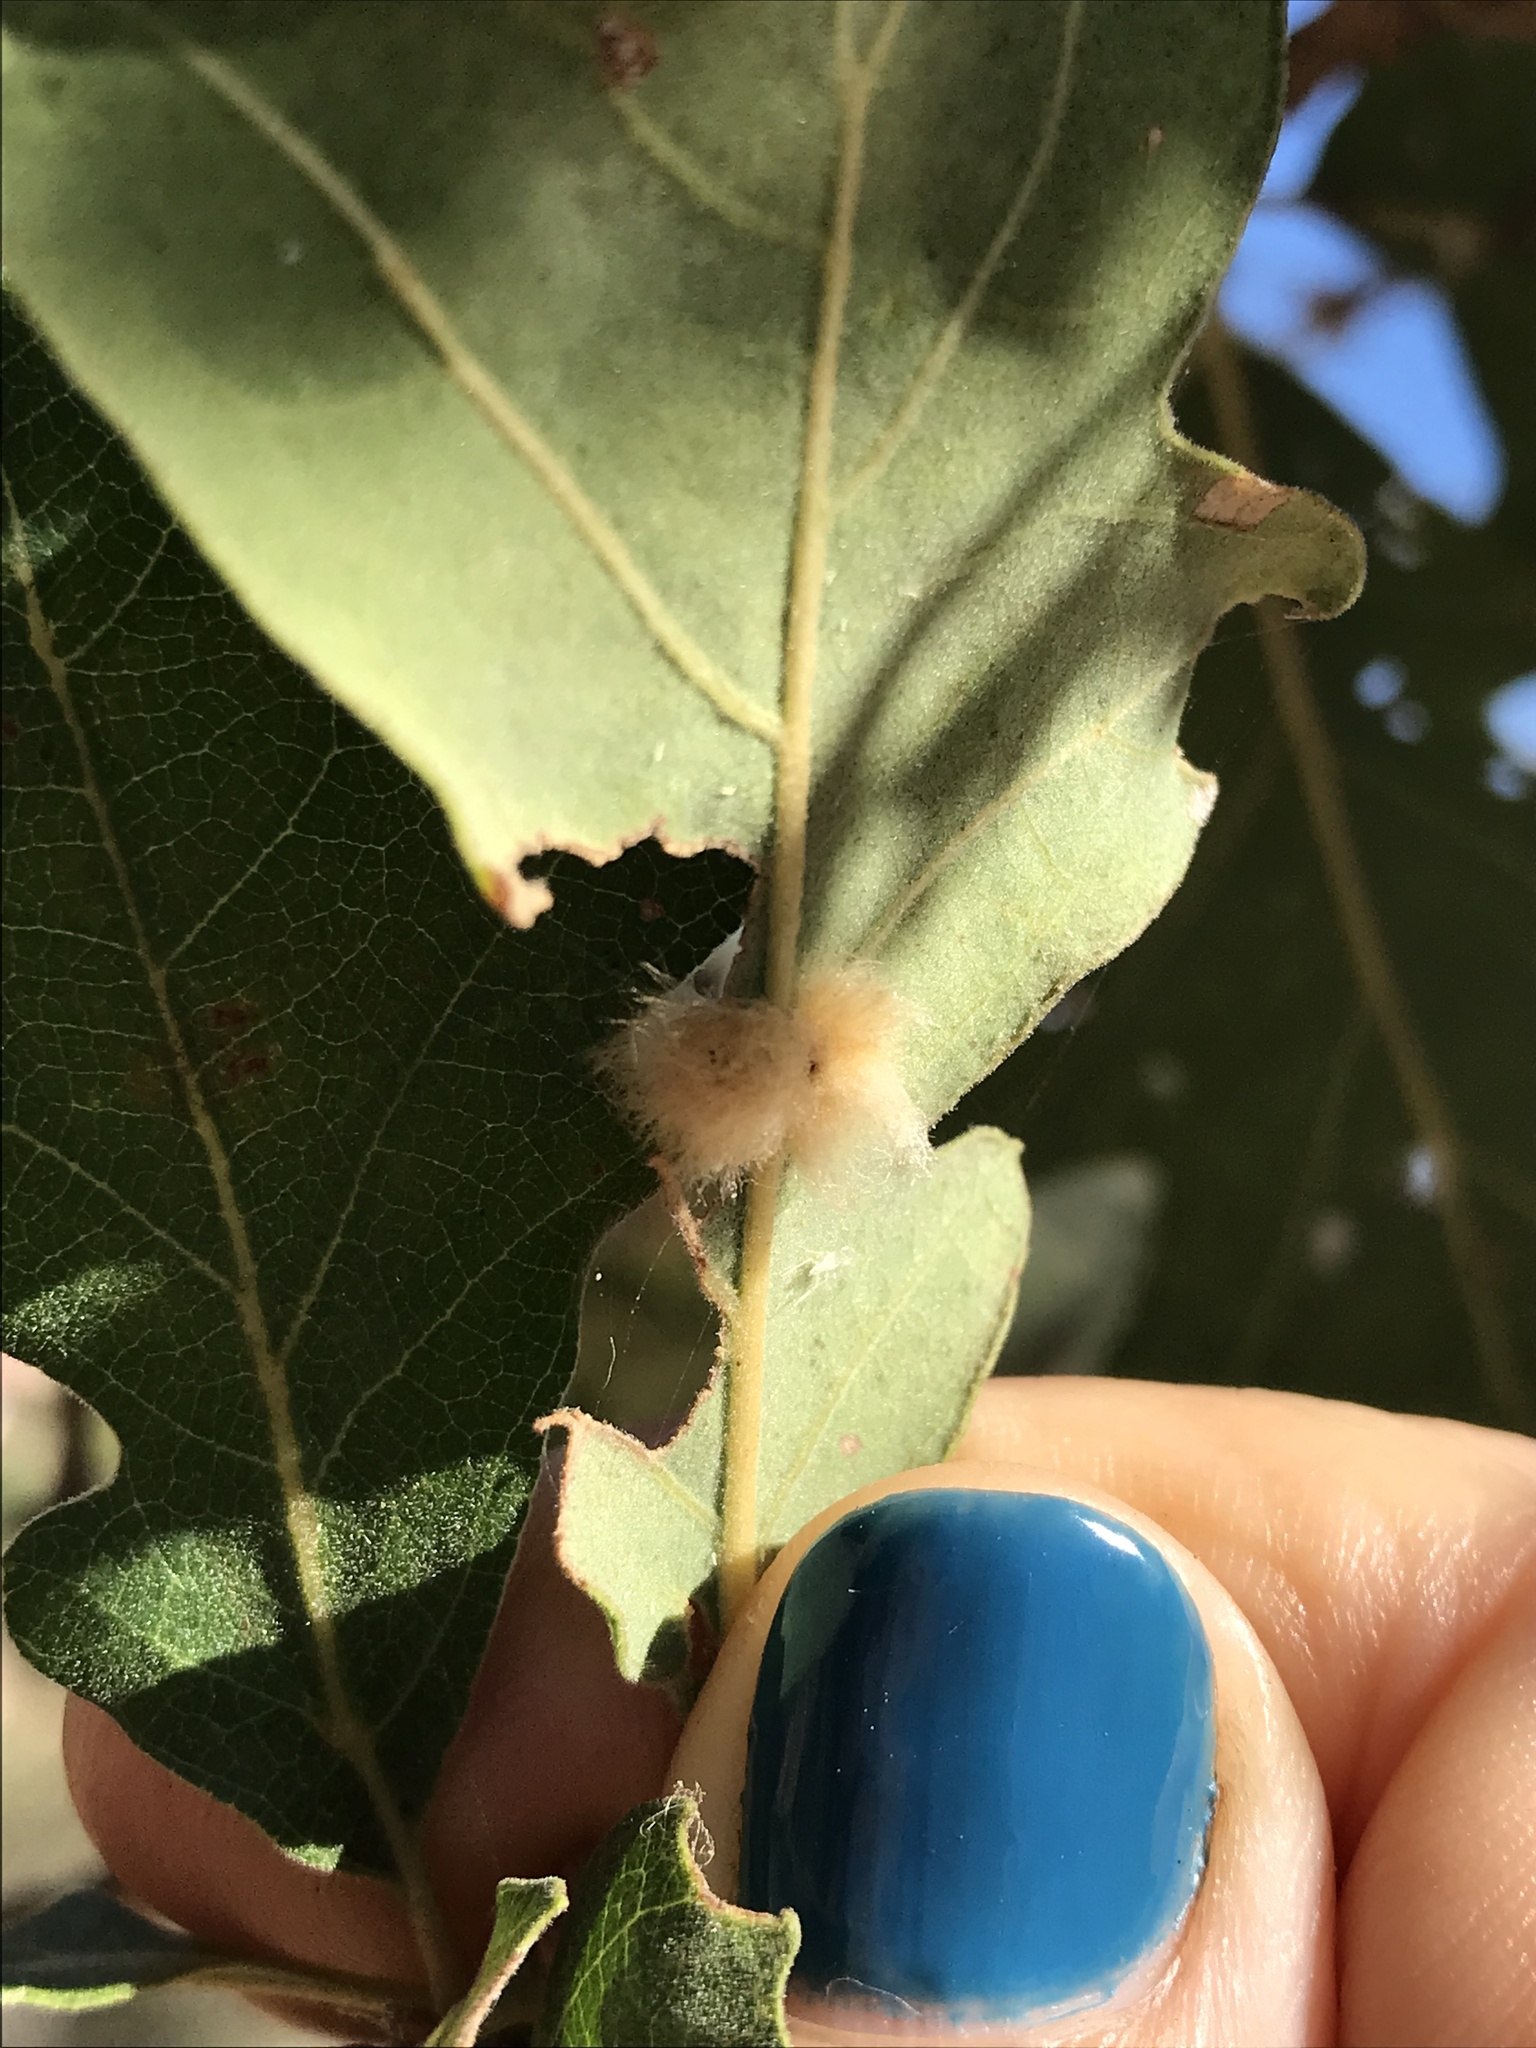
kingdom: Animalia
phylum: Arthropoda
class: Insecta
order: Hymenoptera
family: Cynipidae
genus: Andricus
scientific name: Andricus Druon fullawayi
